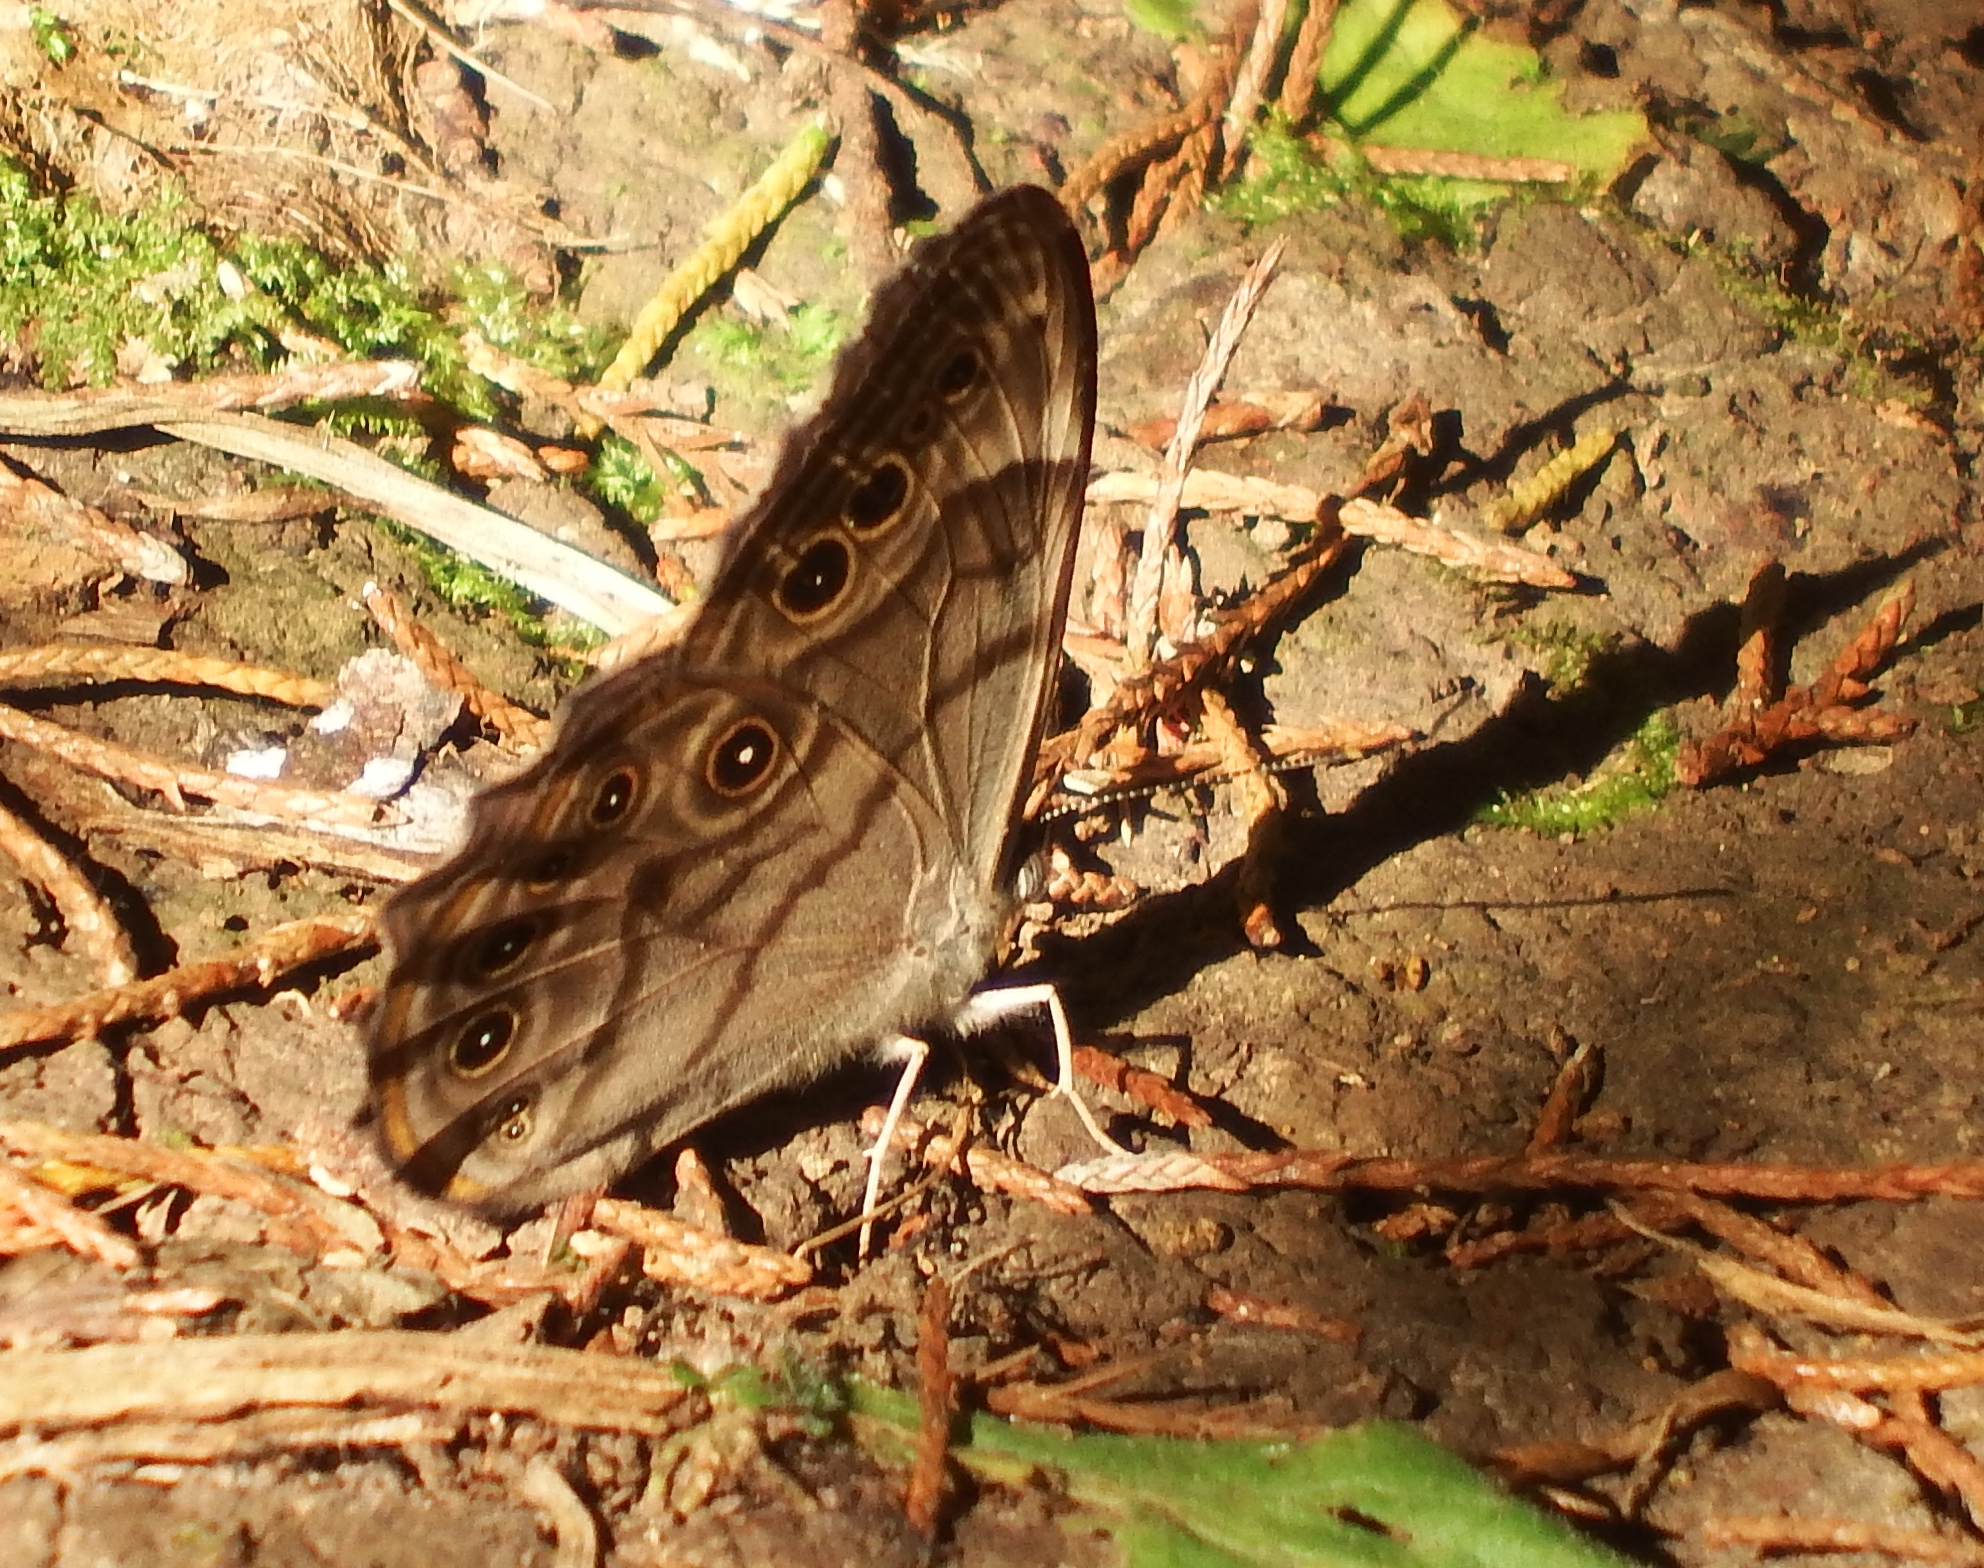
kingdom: Animalia
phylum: Arthropoda
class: Insecta
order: Lepidoptera
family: Nymphalidae
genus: Lethe
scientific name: Lethe anthedon
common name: Northern pearly-eye
